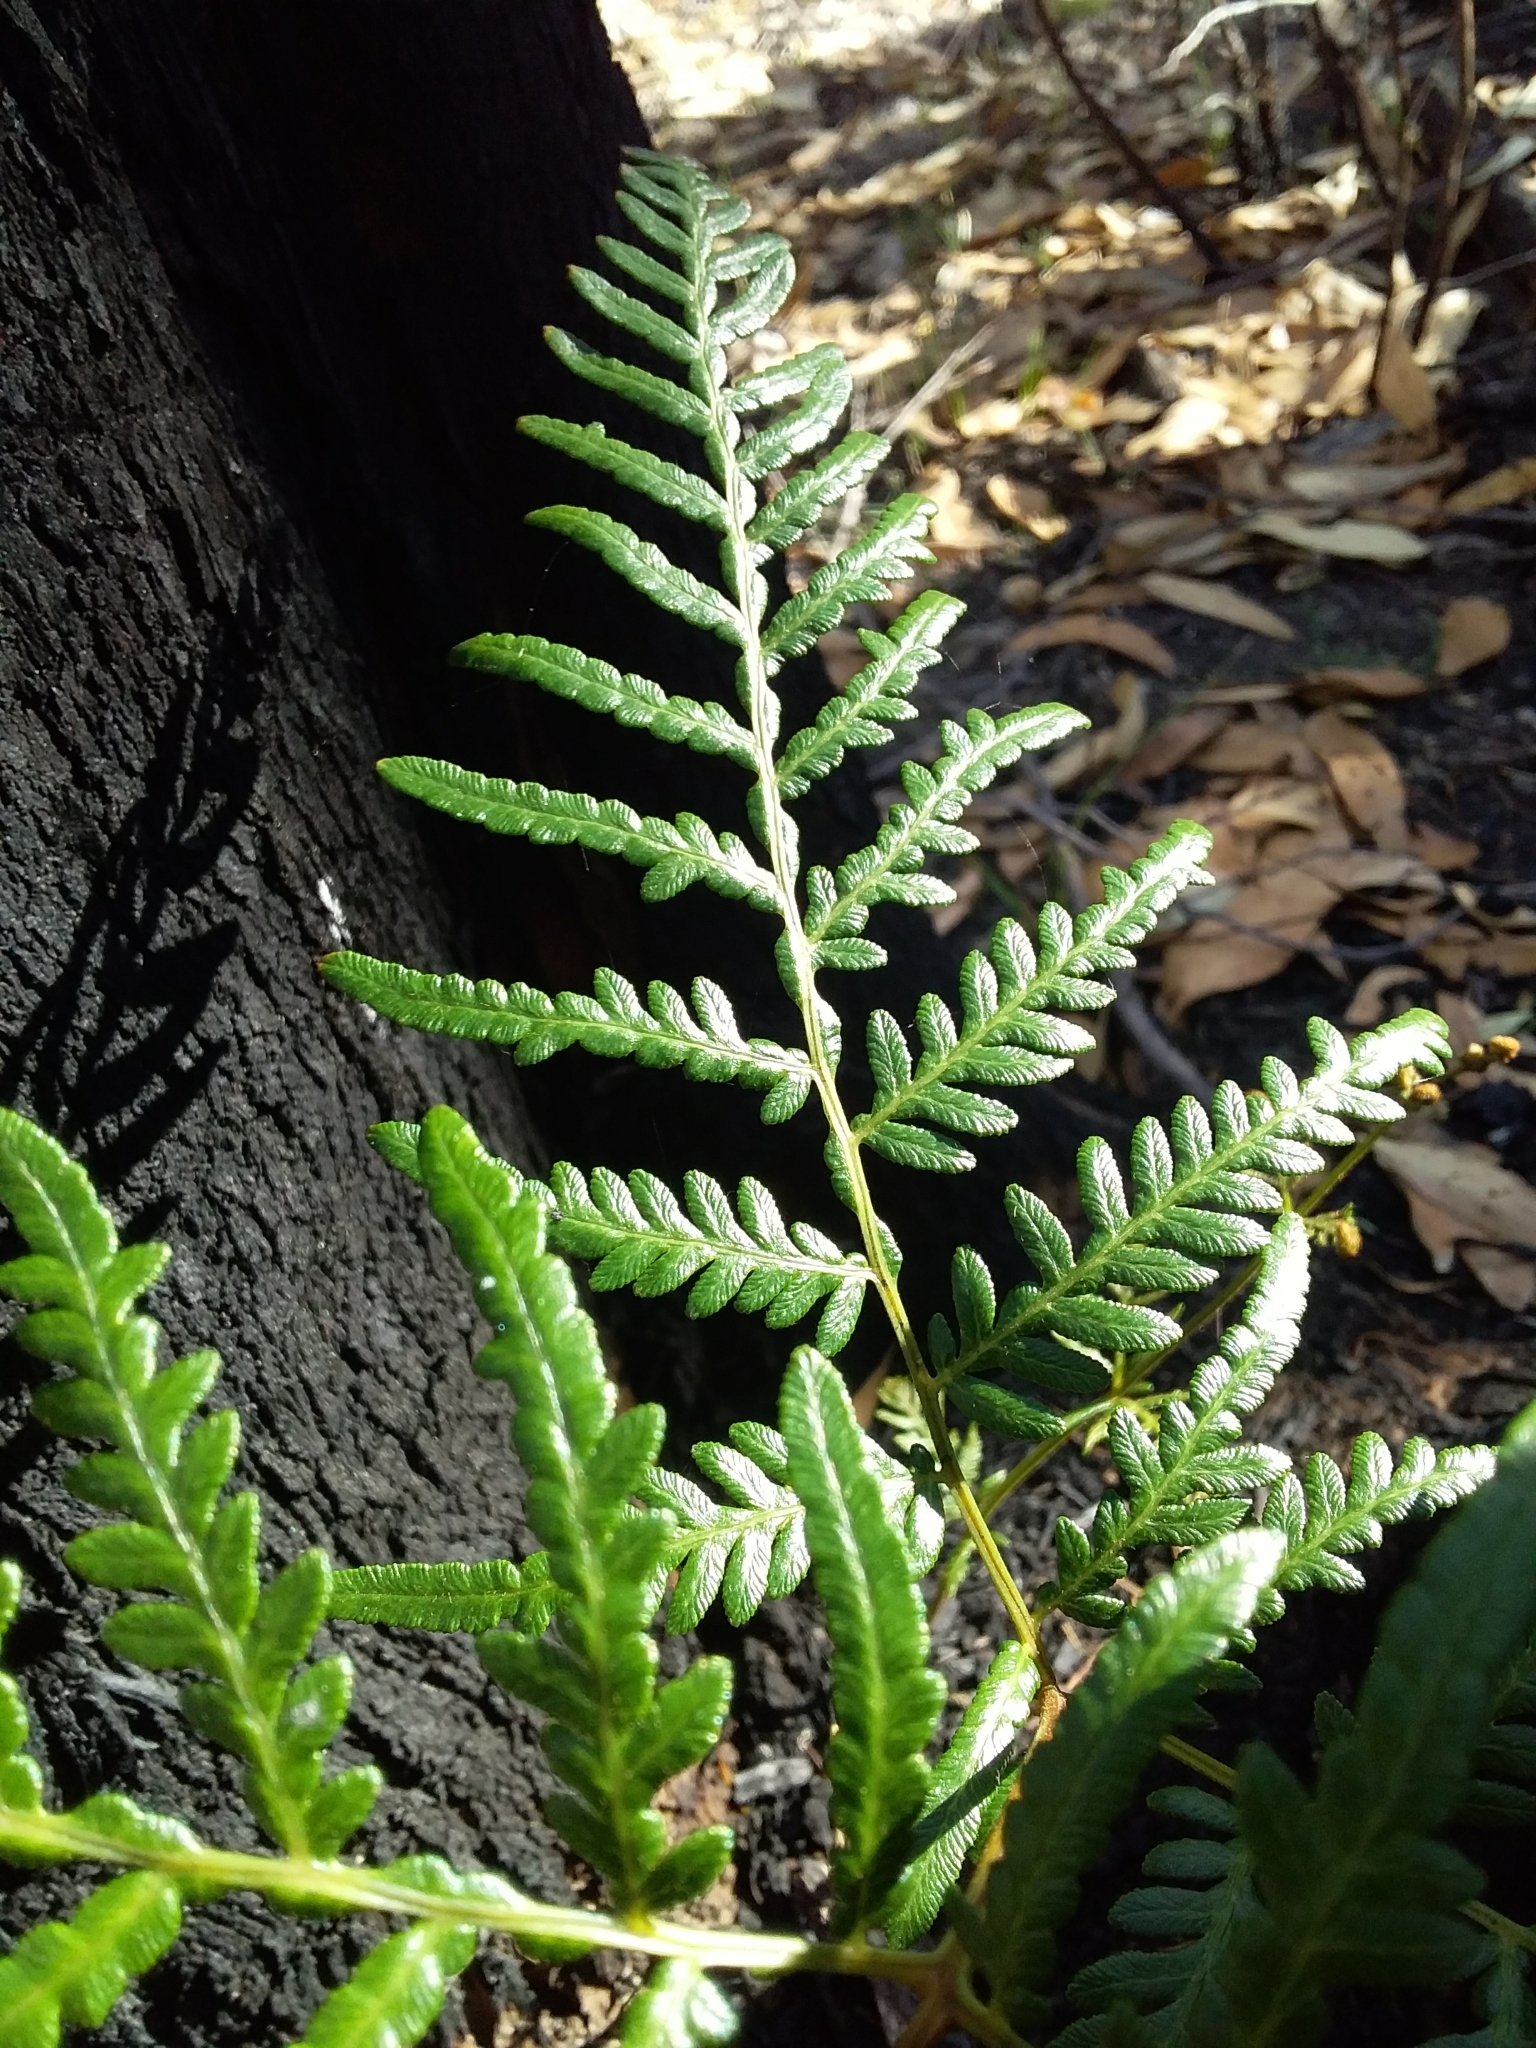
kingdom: Plantae
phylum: Tracheophyta
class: Polypodiopsida
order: Polypodiales
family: Dennstaedtiaceae
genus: Pteridium
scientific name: Pteridium esculentum
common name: Bracken fern
